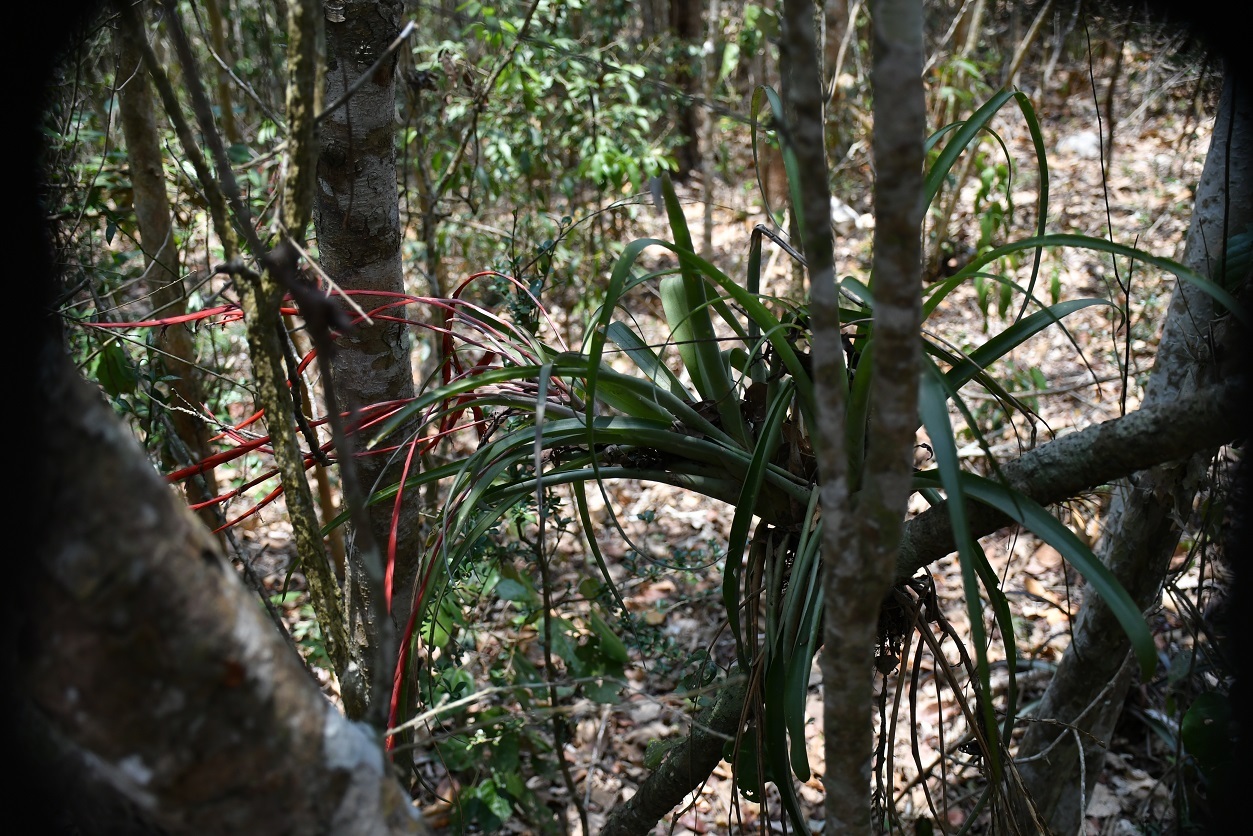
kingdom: Plantae
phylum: Tracheophyta
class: Liliopsida
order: Poales
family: Bromeliaceae
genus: Tillandsia
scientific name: Tillandsia flabellata
